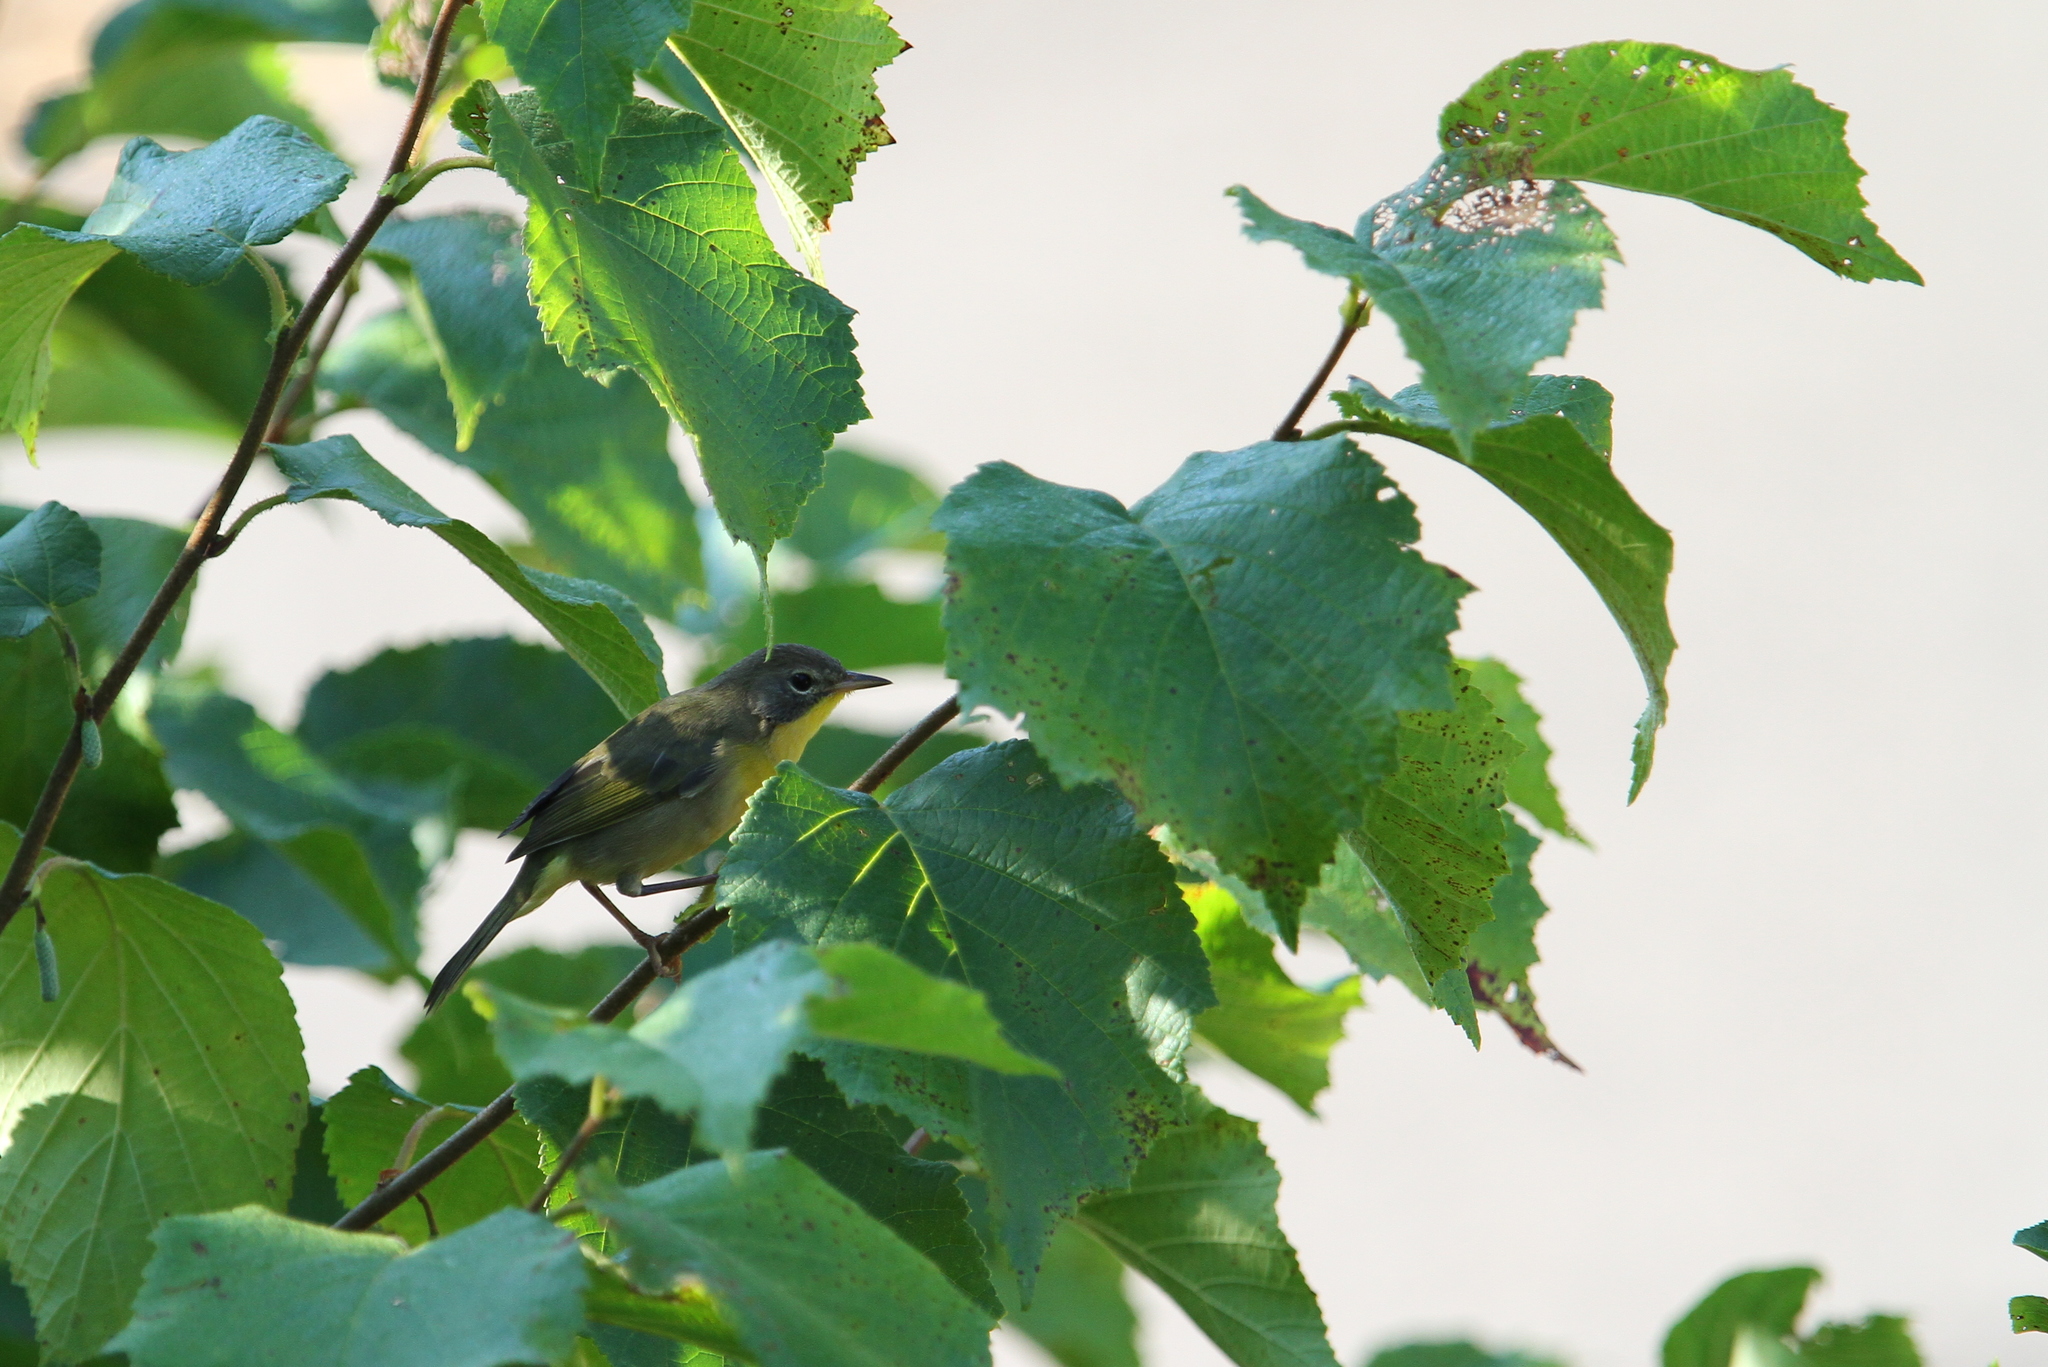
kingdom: Animalia
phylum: Chordata
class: Aves
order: Passeriformes
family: Parulidae
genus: Geothlypis
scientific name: Geothlypis trichas
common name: Common yellowthroat
